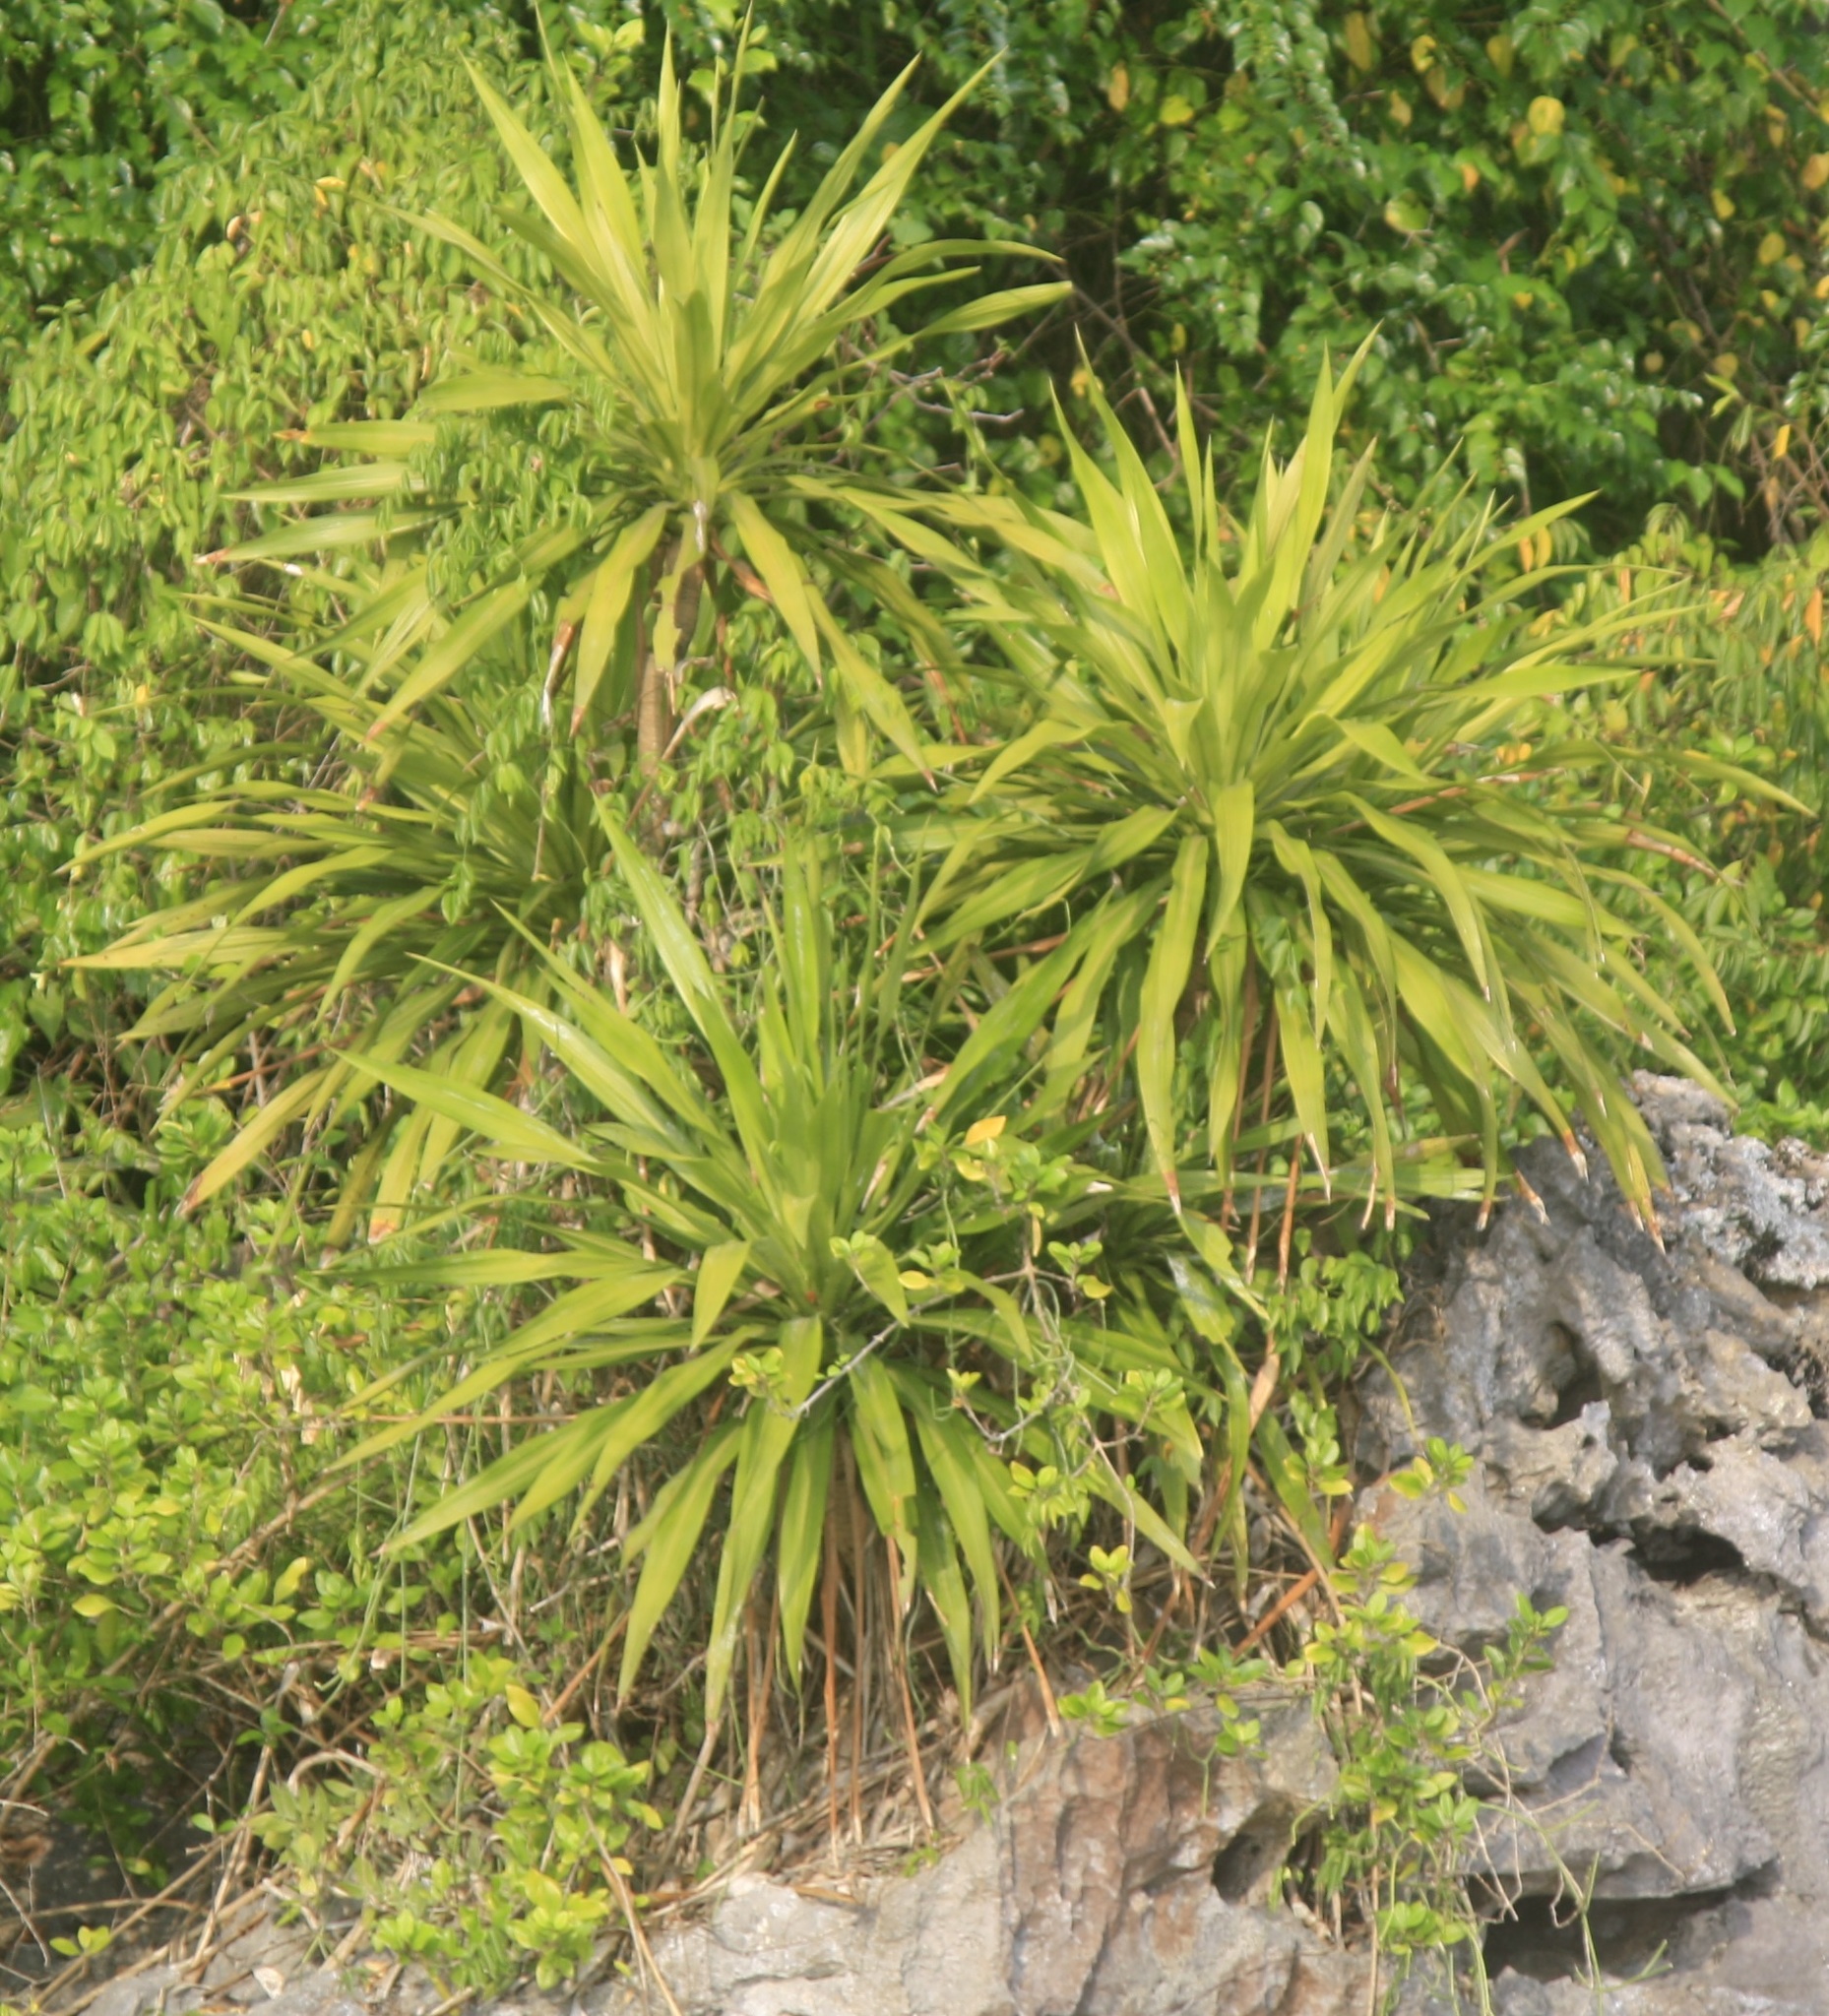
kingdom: Plantae
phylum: Tracheophyta
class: Liliopsida
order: Asparagales
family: Asparagaceae
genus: Dracaena
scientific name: Dracaena cochinchinensis
